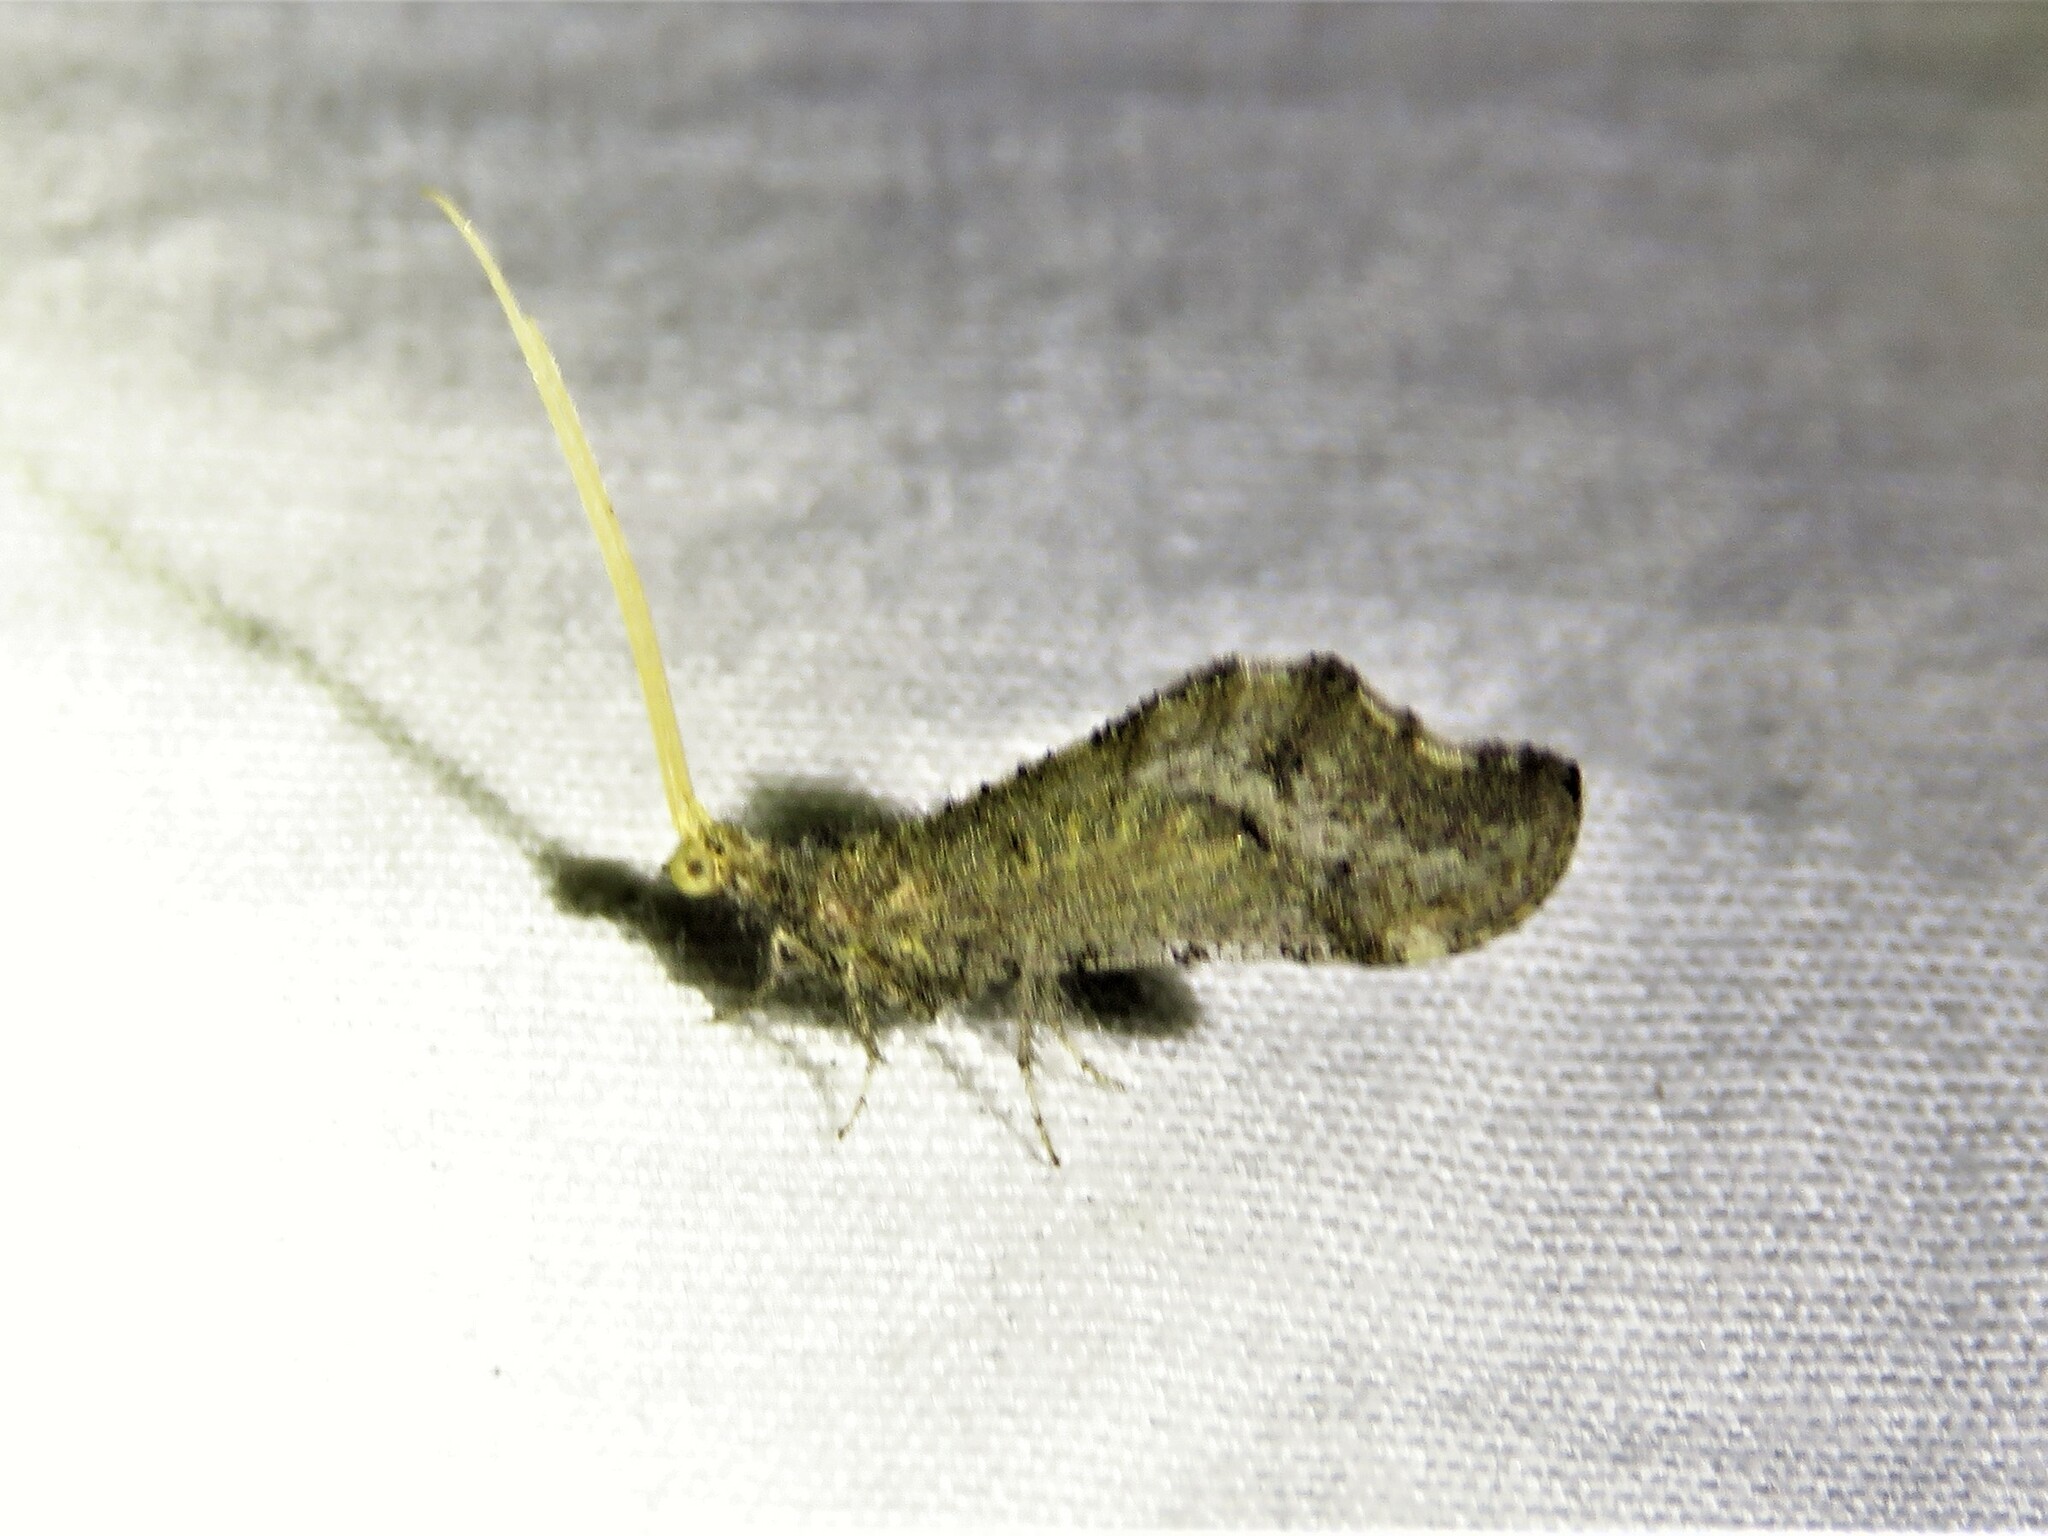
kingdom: Animalia
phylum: Arthropoda
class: Insecta
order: Neuroptera
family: Berothidae
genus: Lomamyia
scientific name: Lomamyia flavicornis
